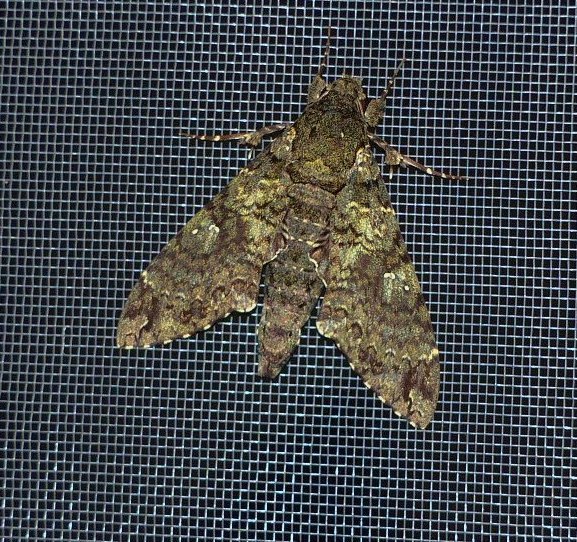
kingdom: Animalia
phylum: Arthropoda
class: Insecta
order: Lepidoptera
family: Sphingidae
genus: Cocytius
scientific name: Cocytius duponchel
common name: Duponchel's sphinx
